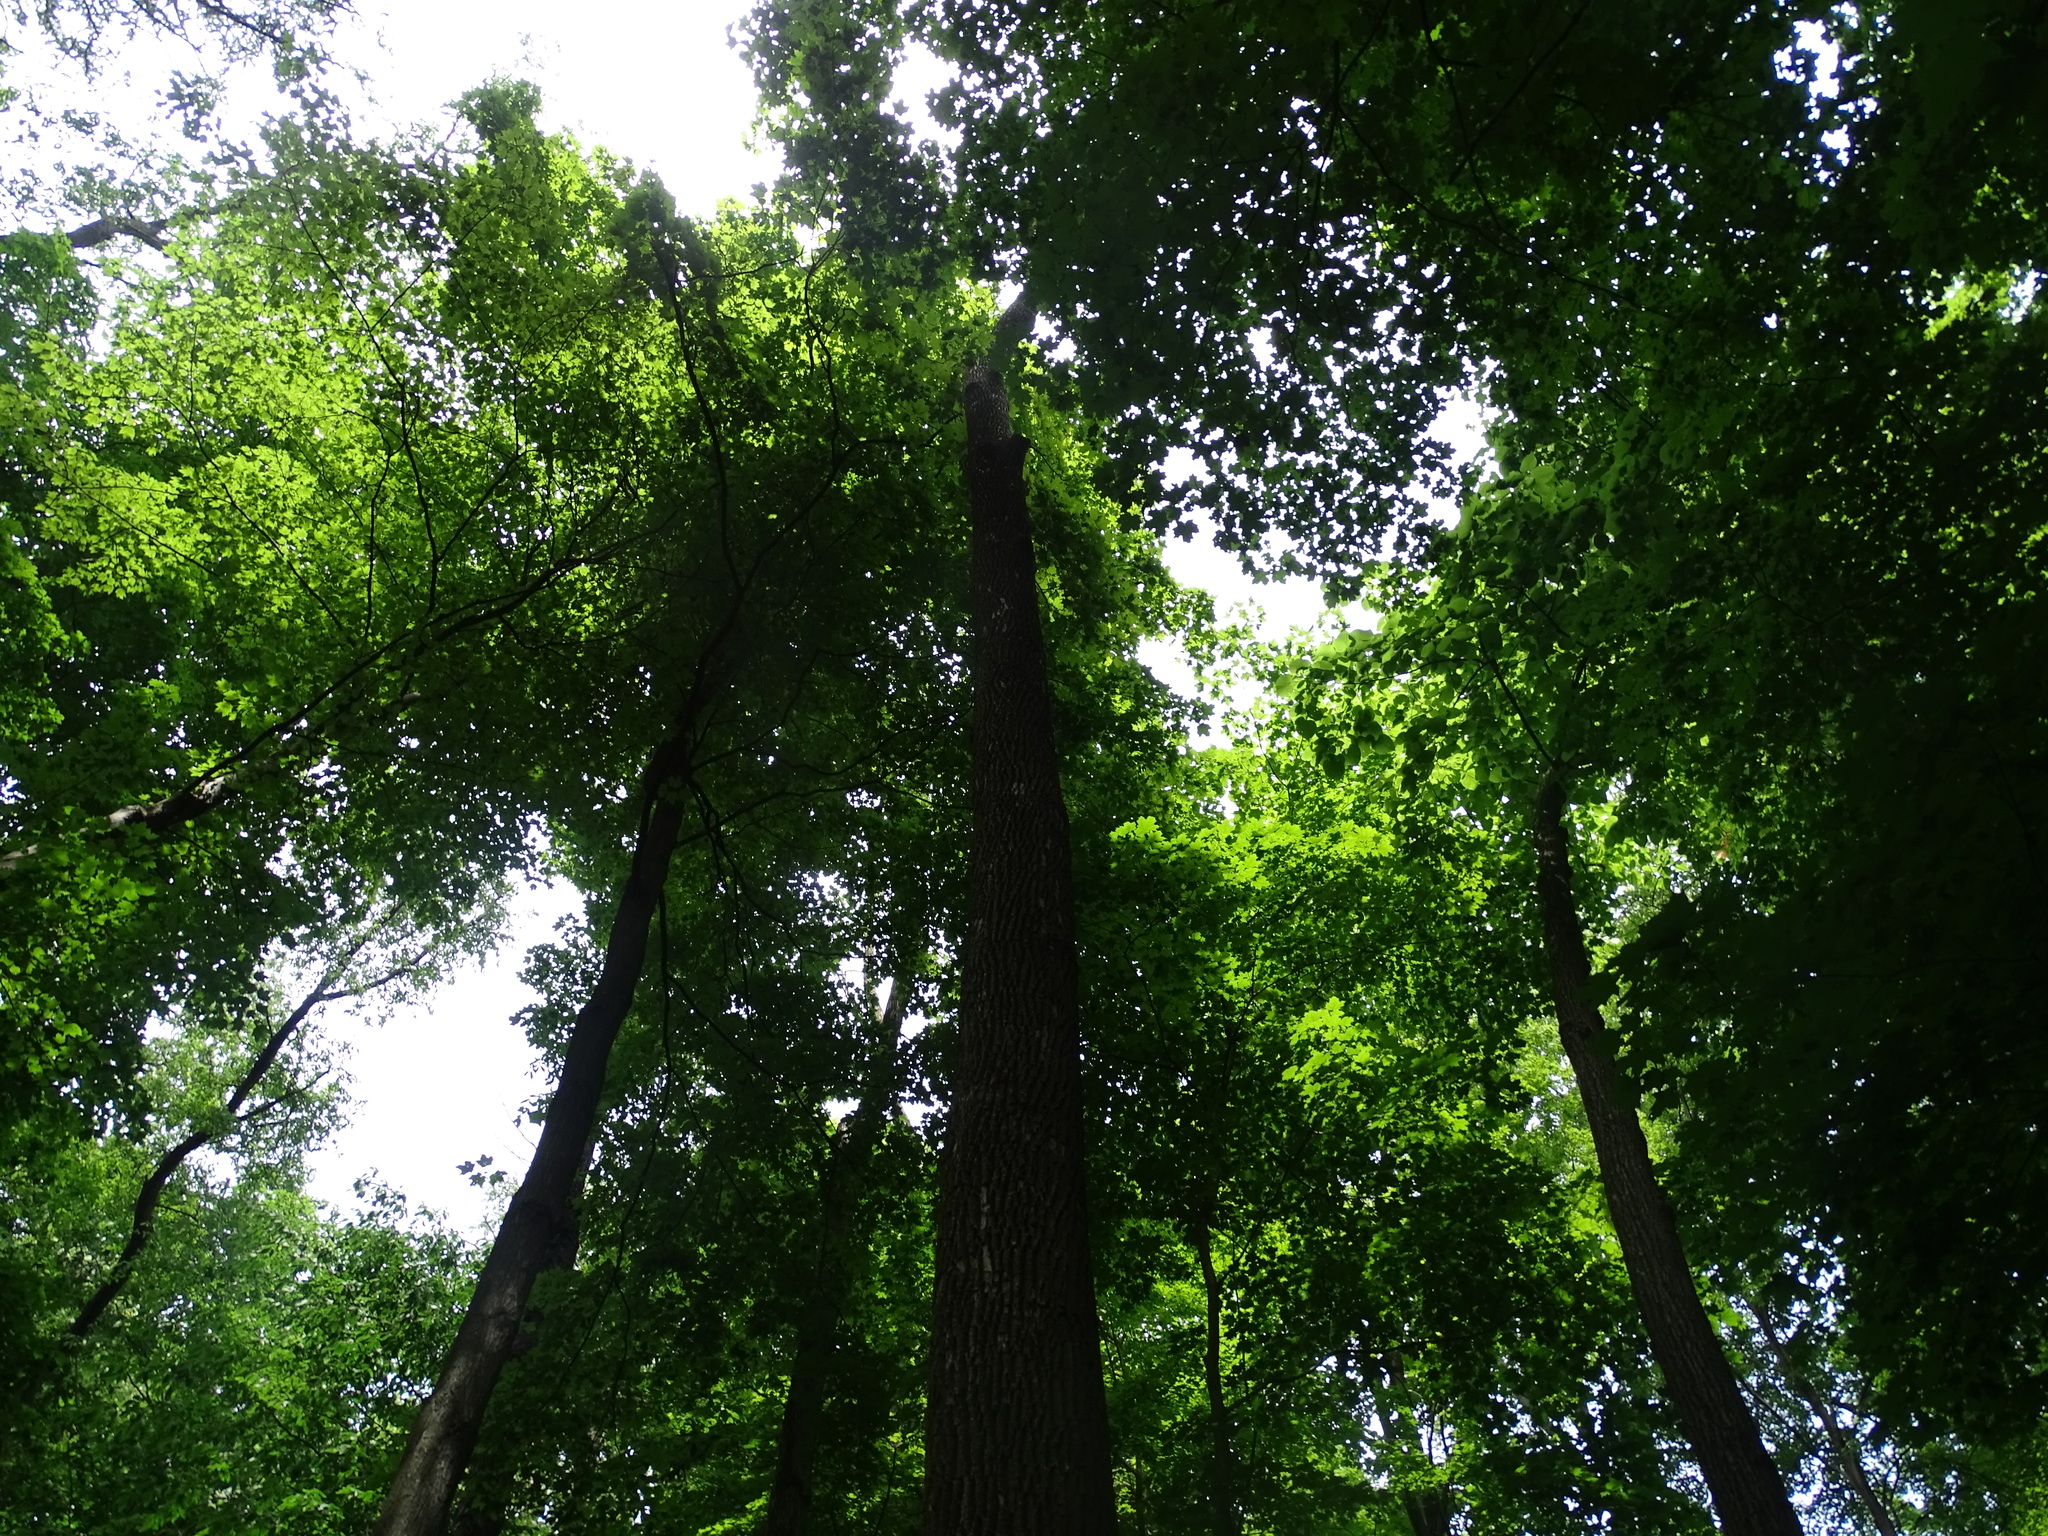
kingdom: Plantae
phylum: Tracheophyta
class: Magnoliopsida
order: Lamiales
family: Oleaceae
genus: Fraxinus
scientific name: Fraxinus americana
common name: White ash
